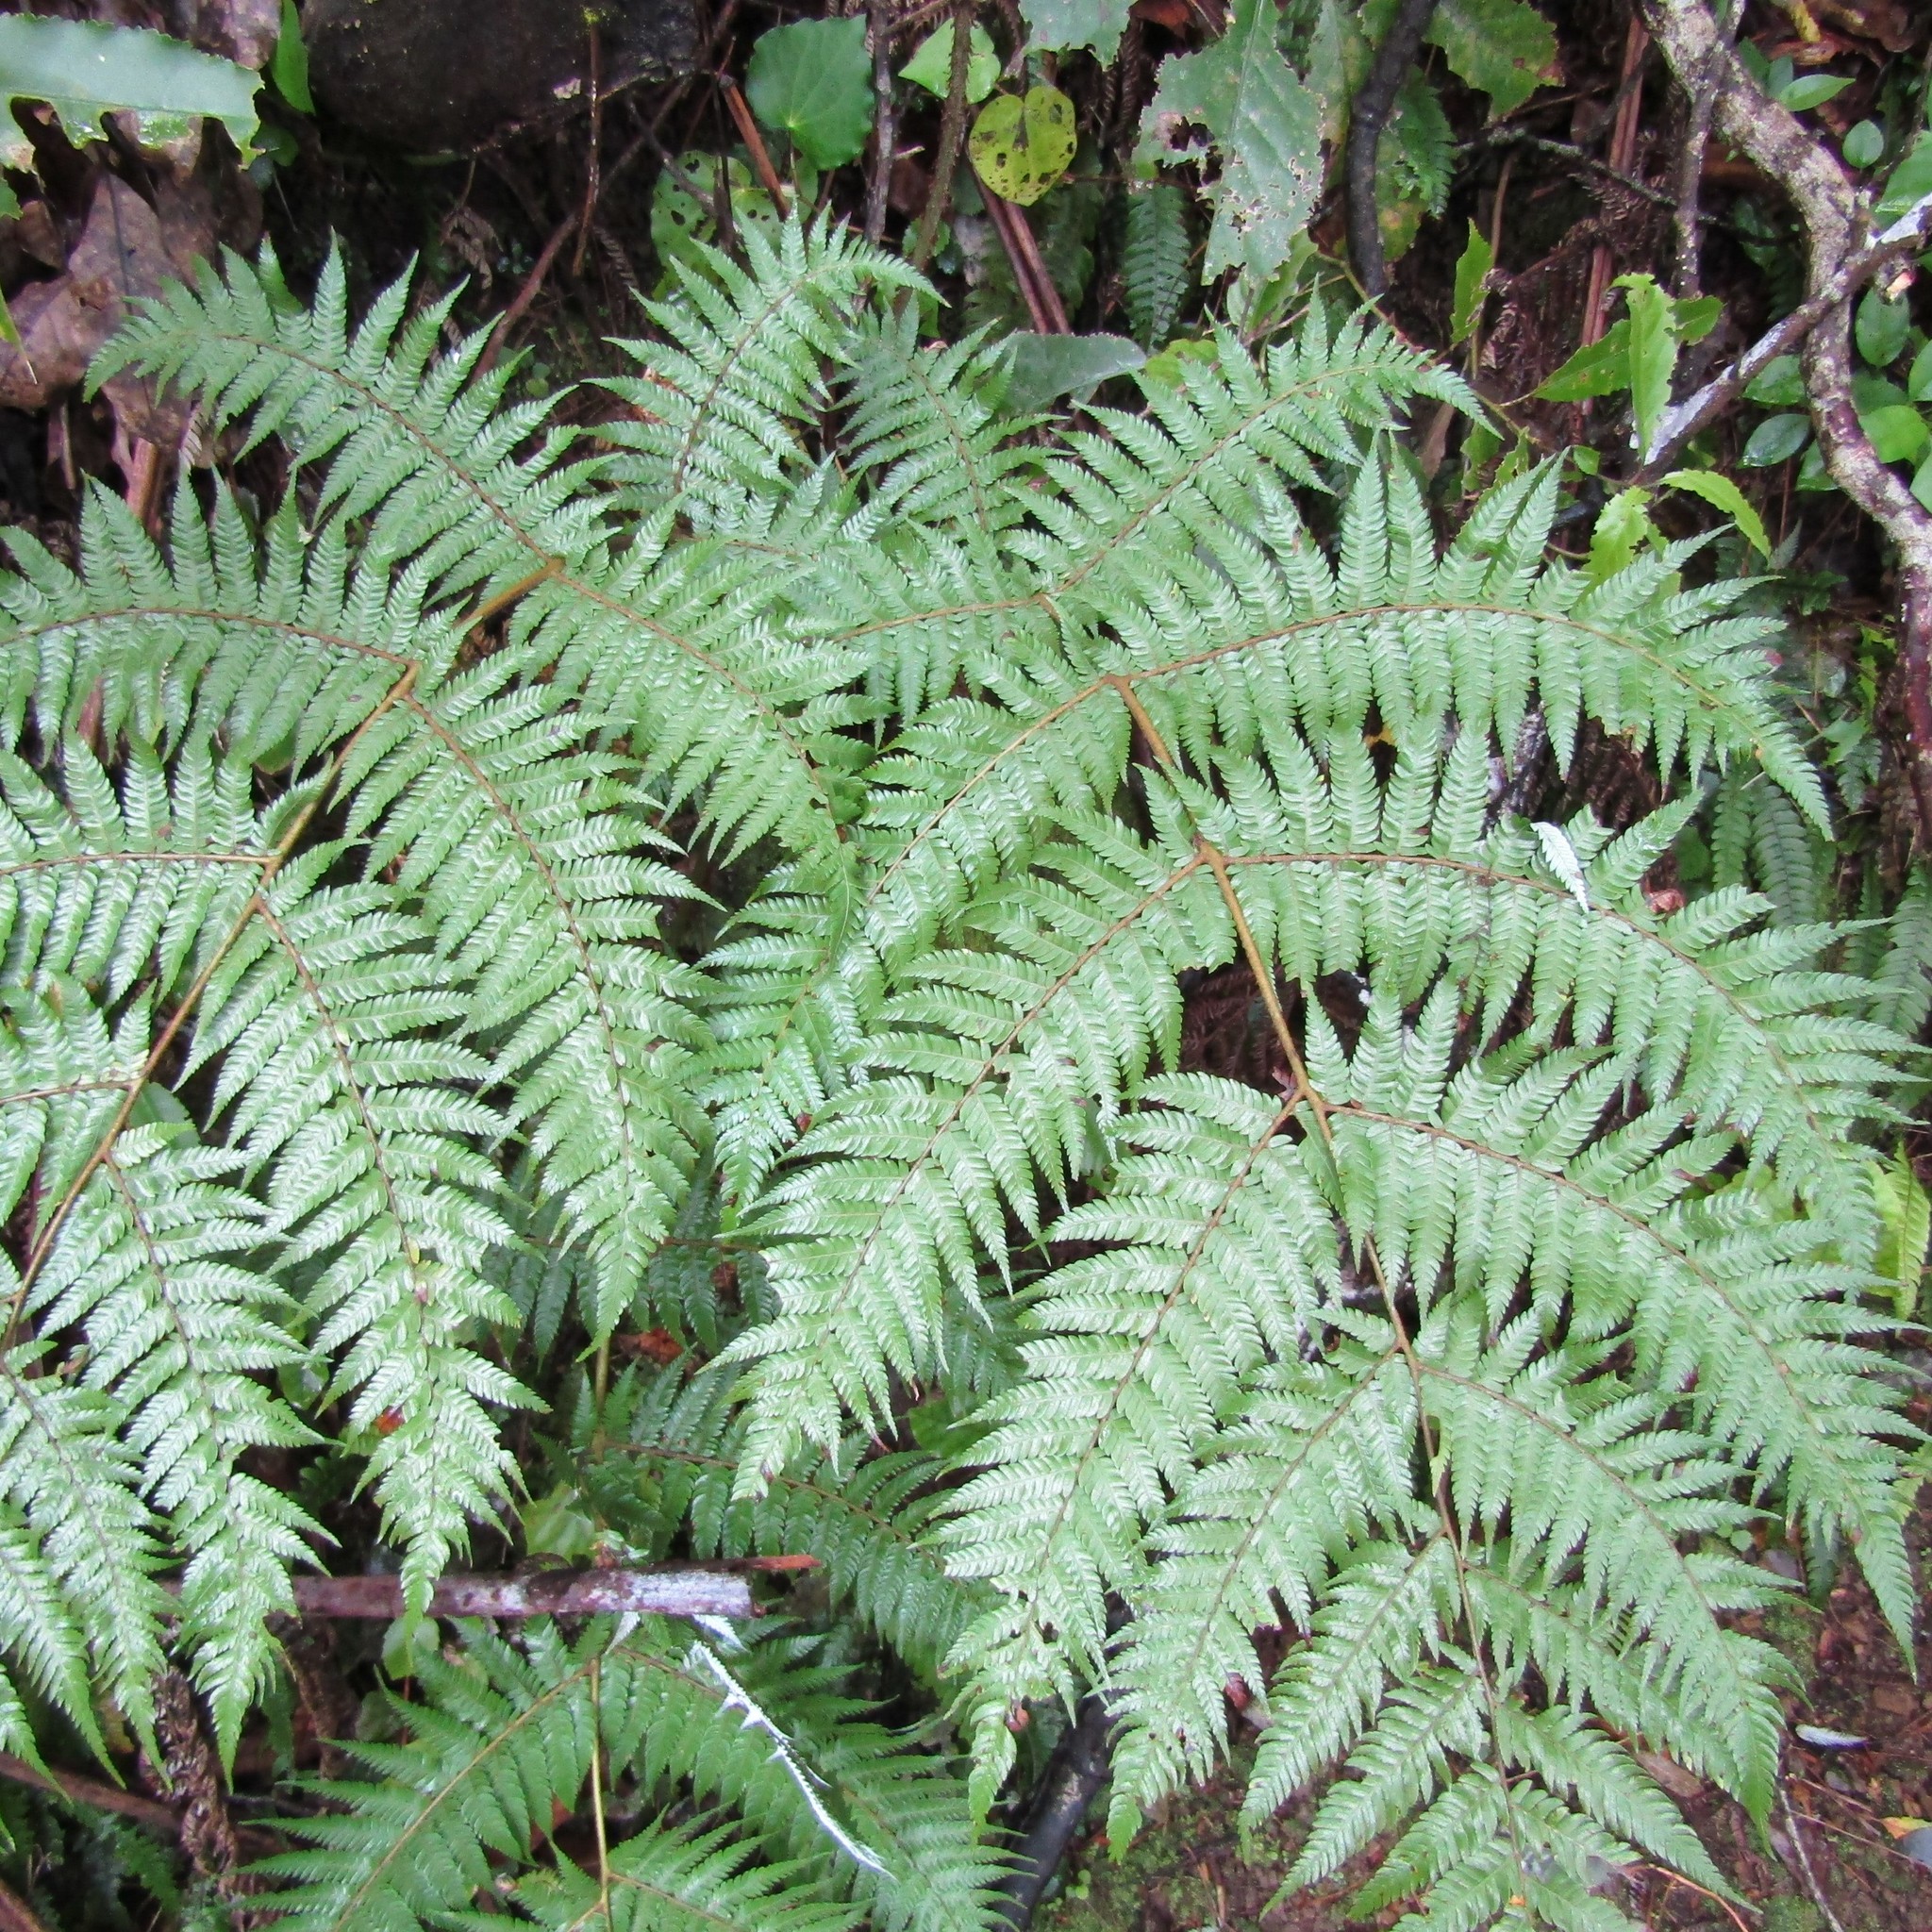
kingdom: Plantae
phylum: Tracheophyta
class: Polypodiopsida
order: Cyatheales
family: Cyatheaceae
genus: Alsophila
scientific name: Alsophila dealbata
